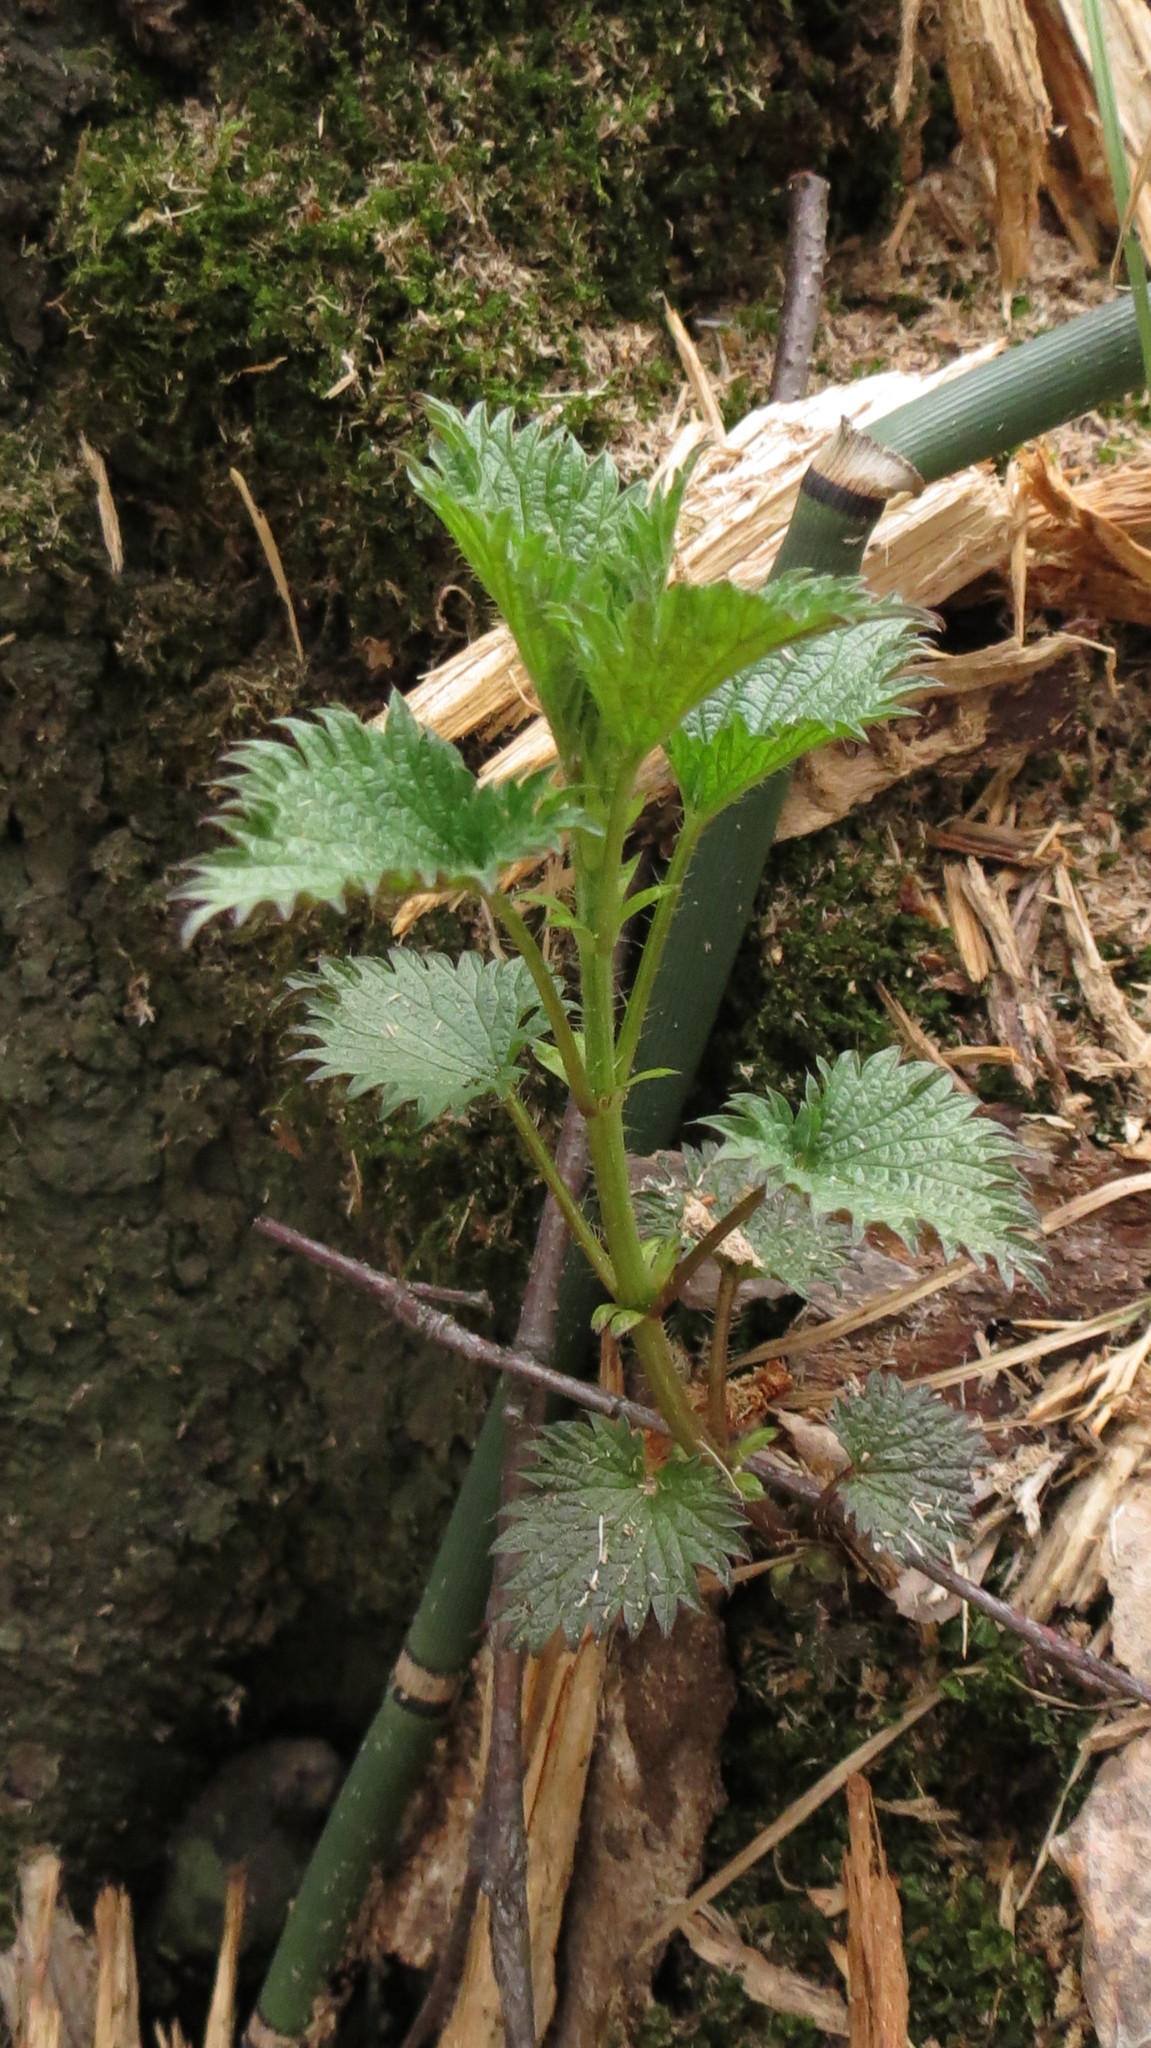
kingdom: Plantae
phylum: Tracheophyta
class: Magnoliopsida
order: Rosales
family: Urticaceae
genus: Urtica
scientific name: Urtica dioica
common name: Common nettle
